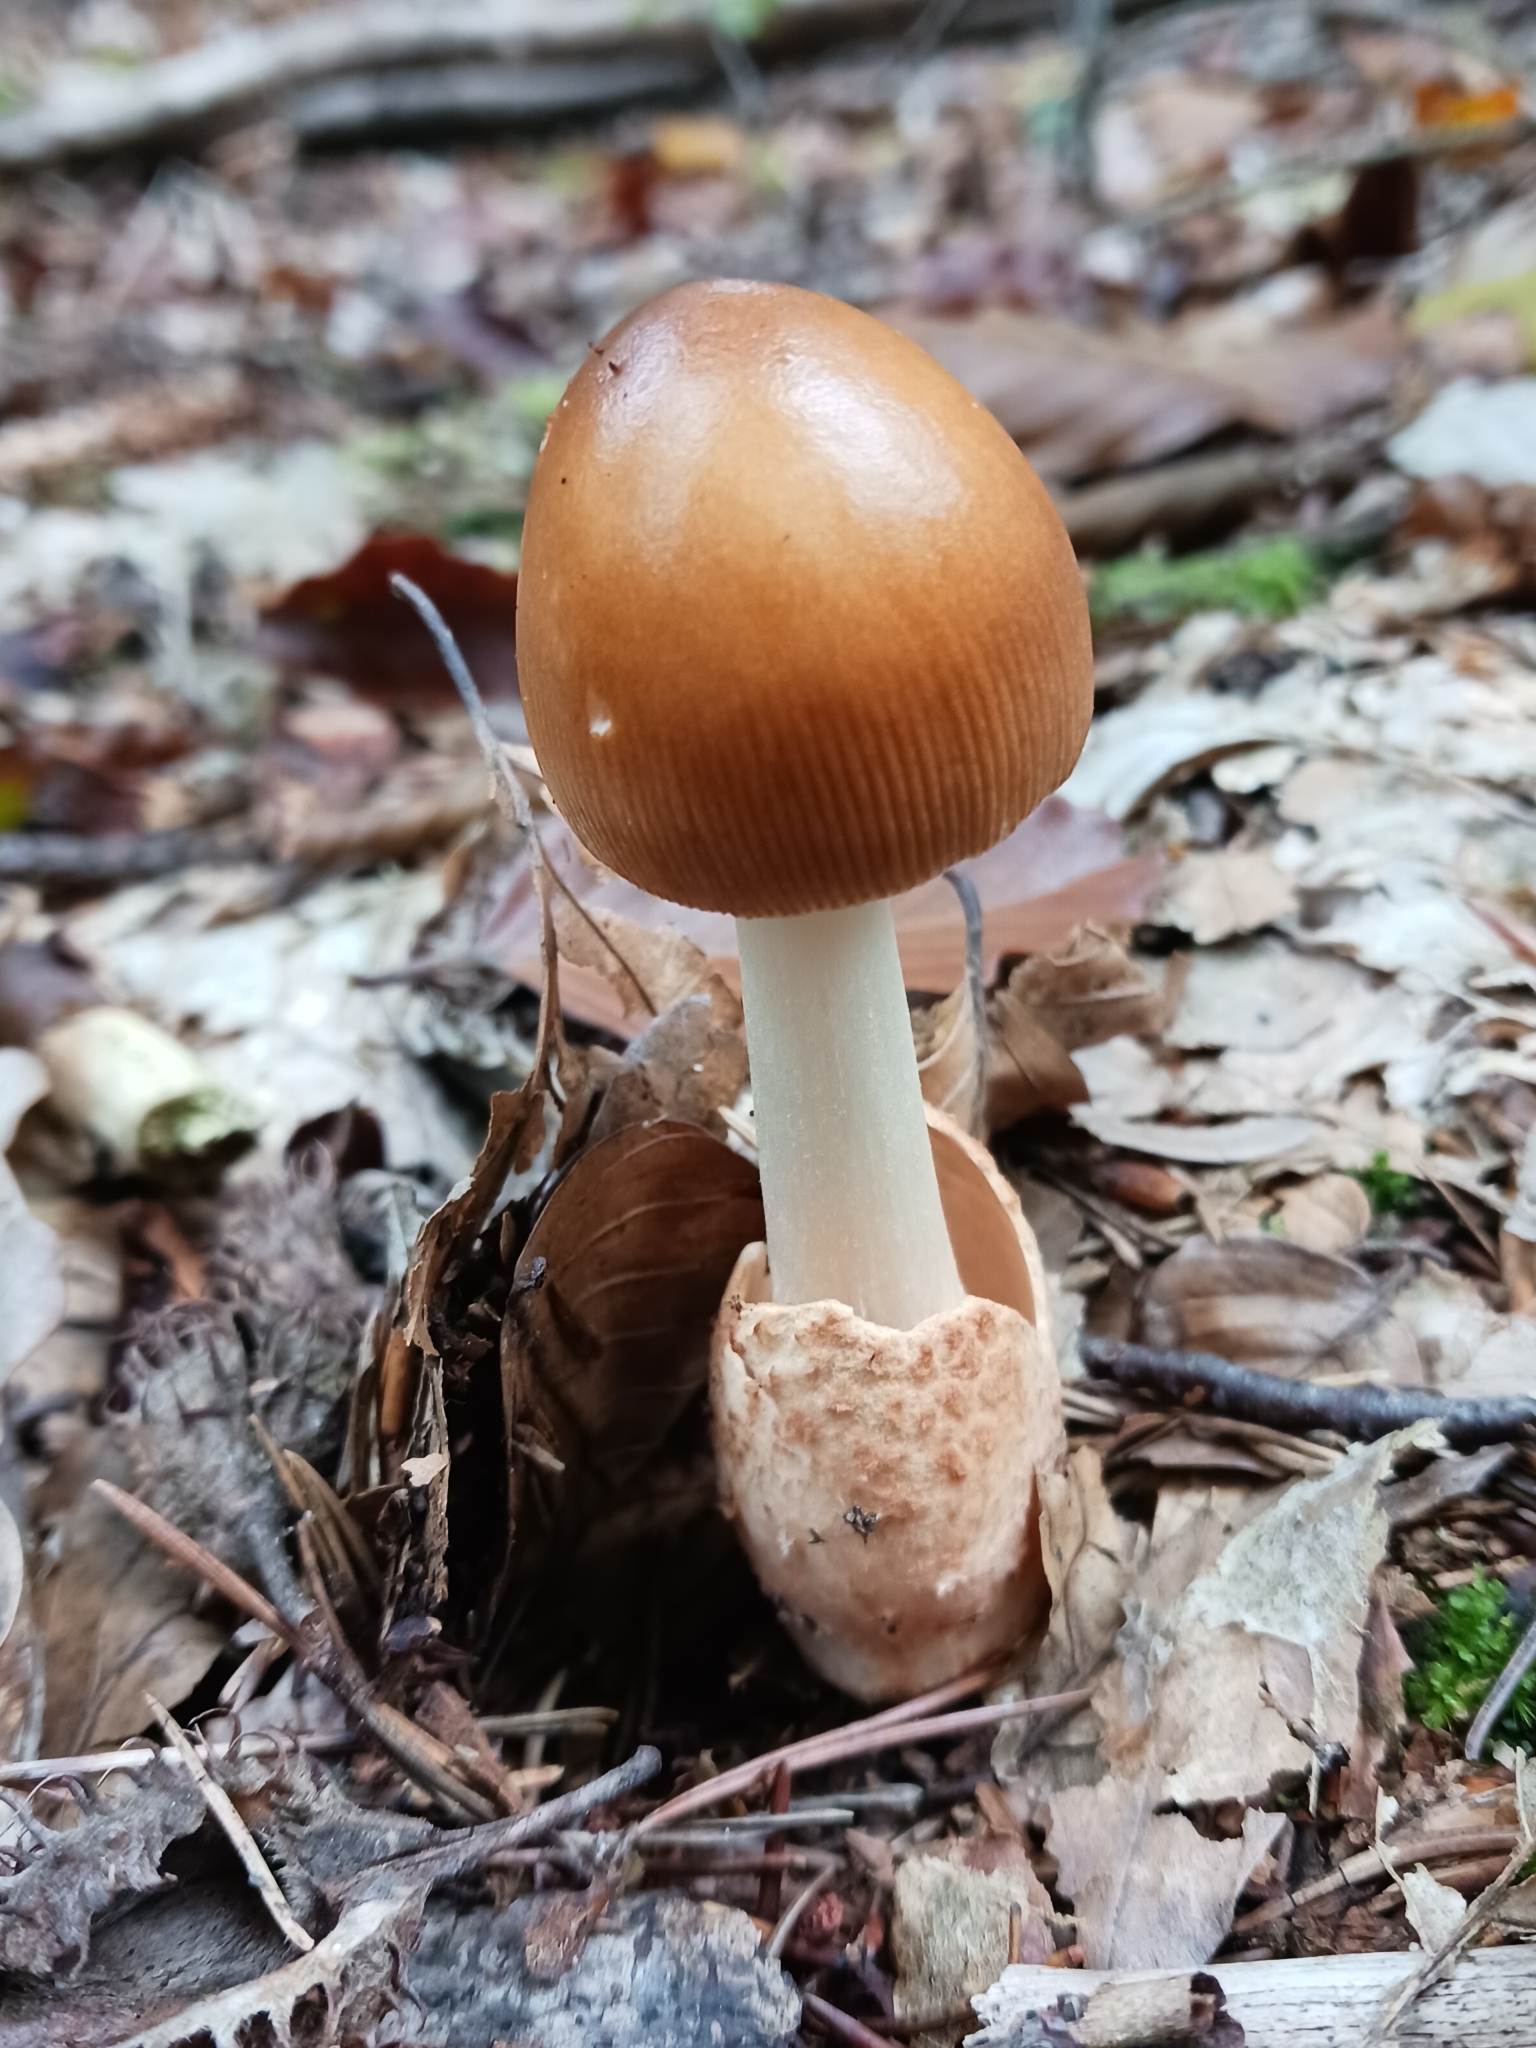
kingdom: Fungi
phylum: Basidiomycota
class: Agaricomycetes
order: Agaricales
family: Amanitaceae
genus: Amanita
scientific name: Amanita fulva
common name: Tawny grisette
